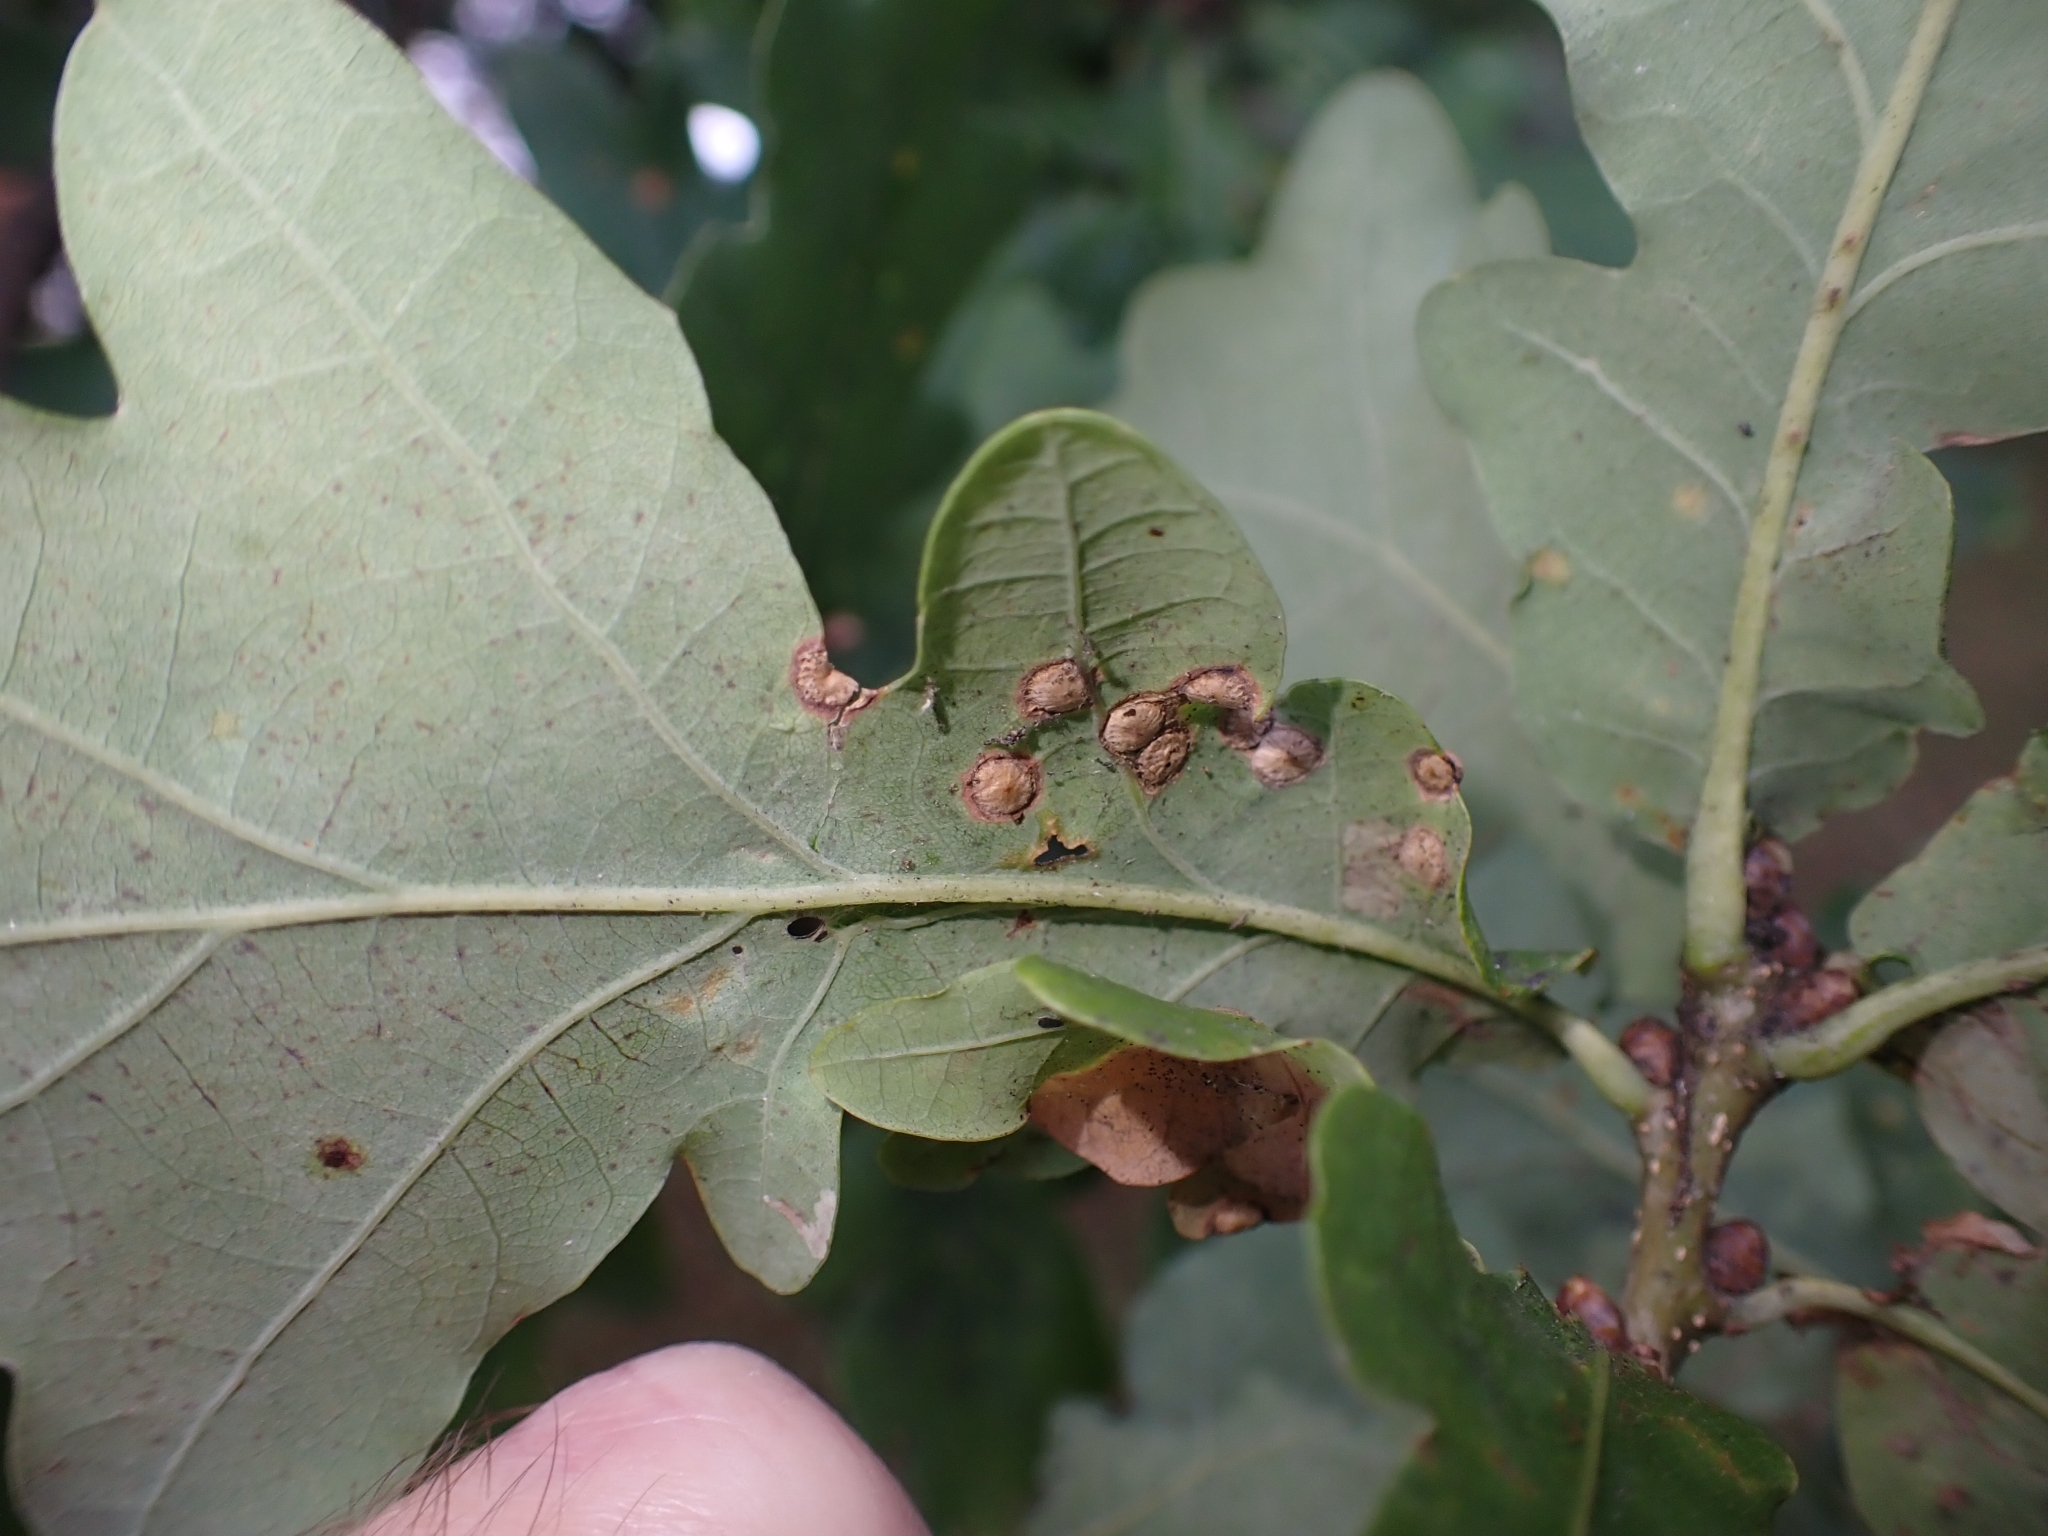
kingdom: Animalia
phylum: Arthropoda
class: Insecta
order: Hymenoptera
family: Cynipidae
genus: Neuroterus
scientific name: Neuroterus numismalis
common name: Silk-button spangle gall
